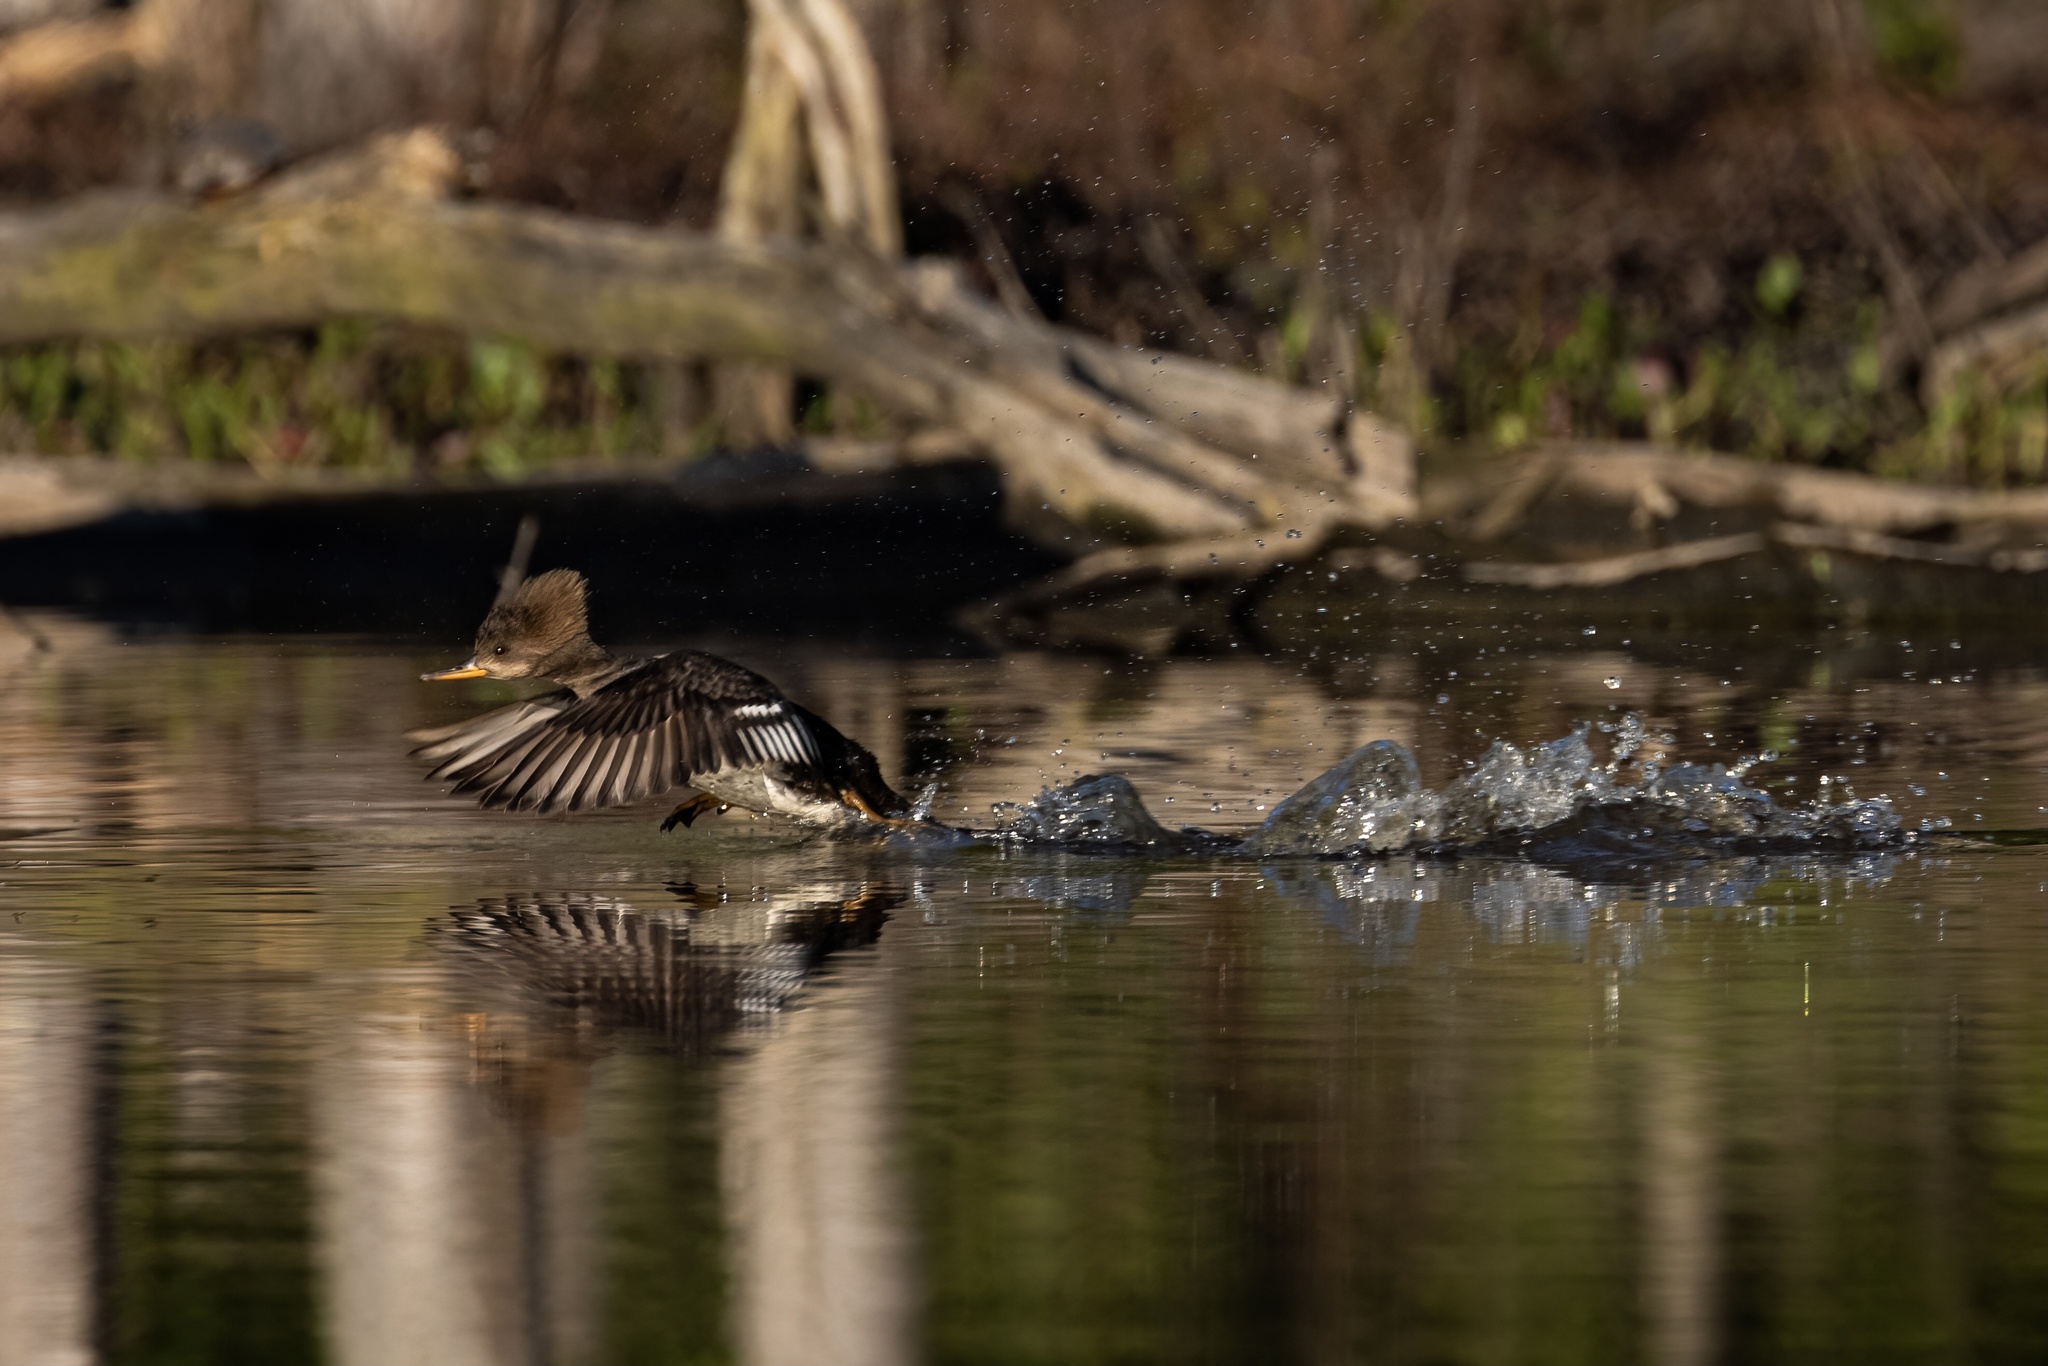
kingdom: Animalia
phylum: Chordata
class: Aves
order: Anseriformes
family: Anatidae
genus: Lophodytes
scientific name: Lophodytes cucullatus
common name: Hooded merganser
